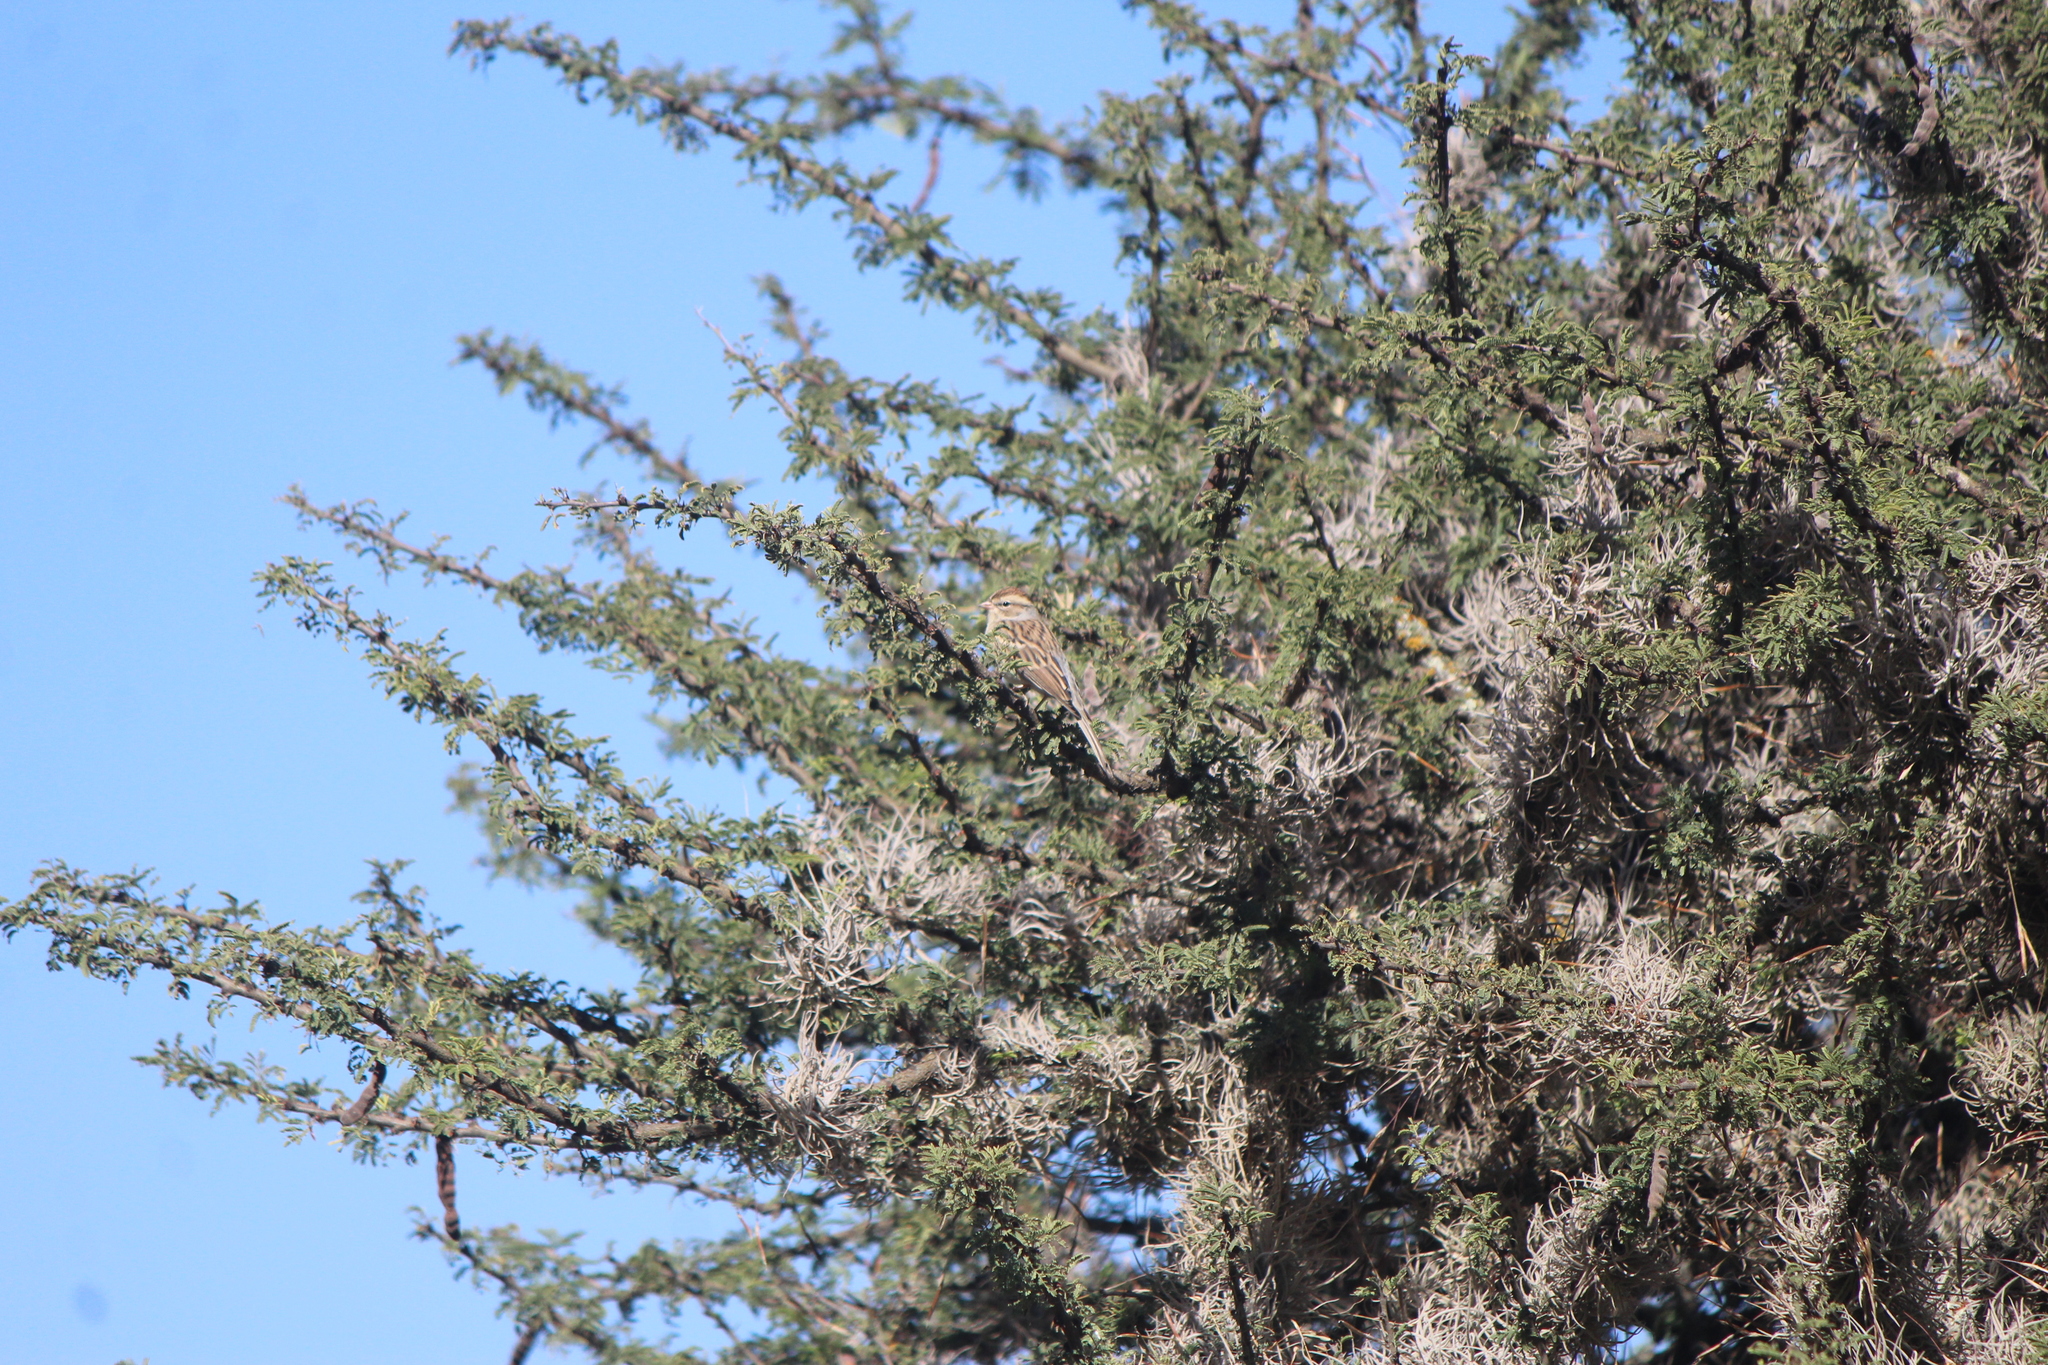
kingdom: Animalia
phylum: Chordata
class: Aves
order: Passeriformes
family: Passerellidae
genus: Spizella
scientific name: Spizella passerina
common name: Chipping sparrow
